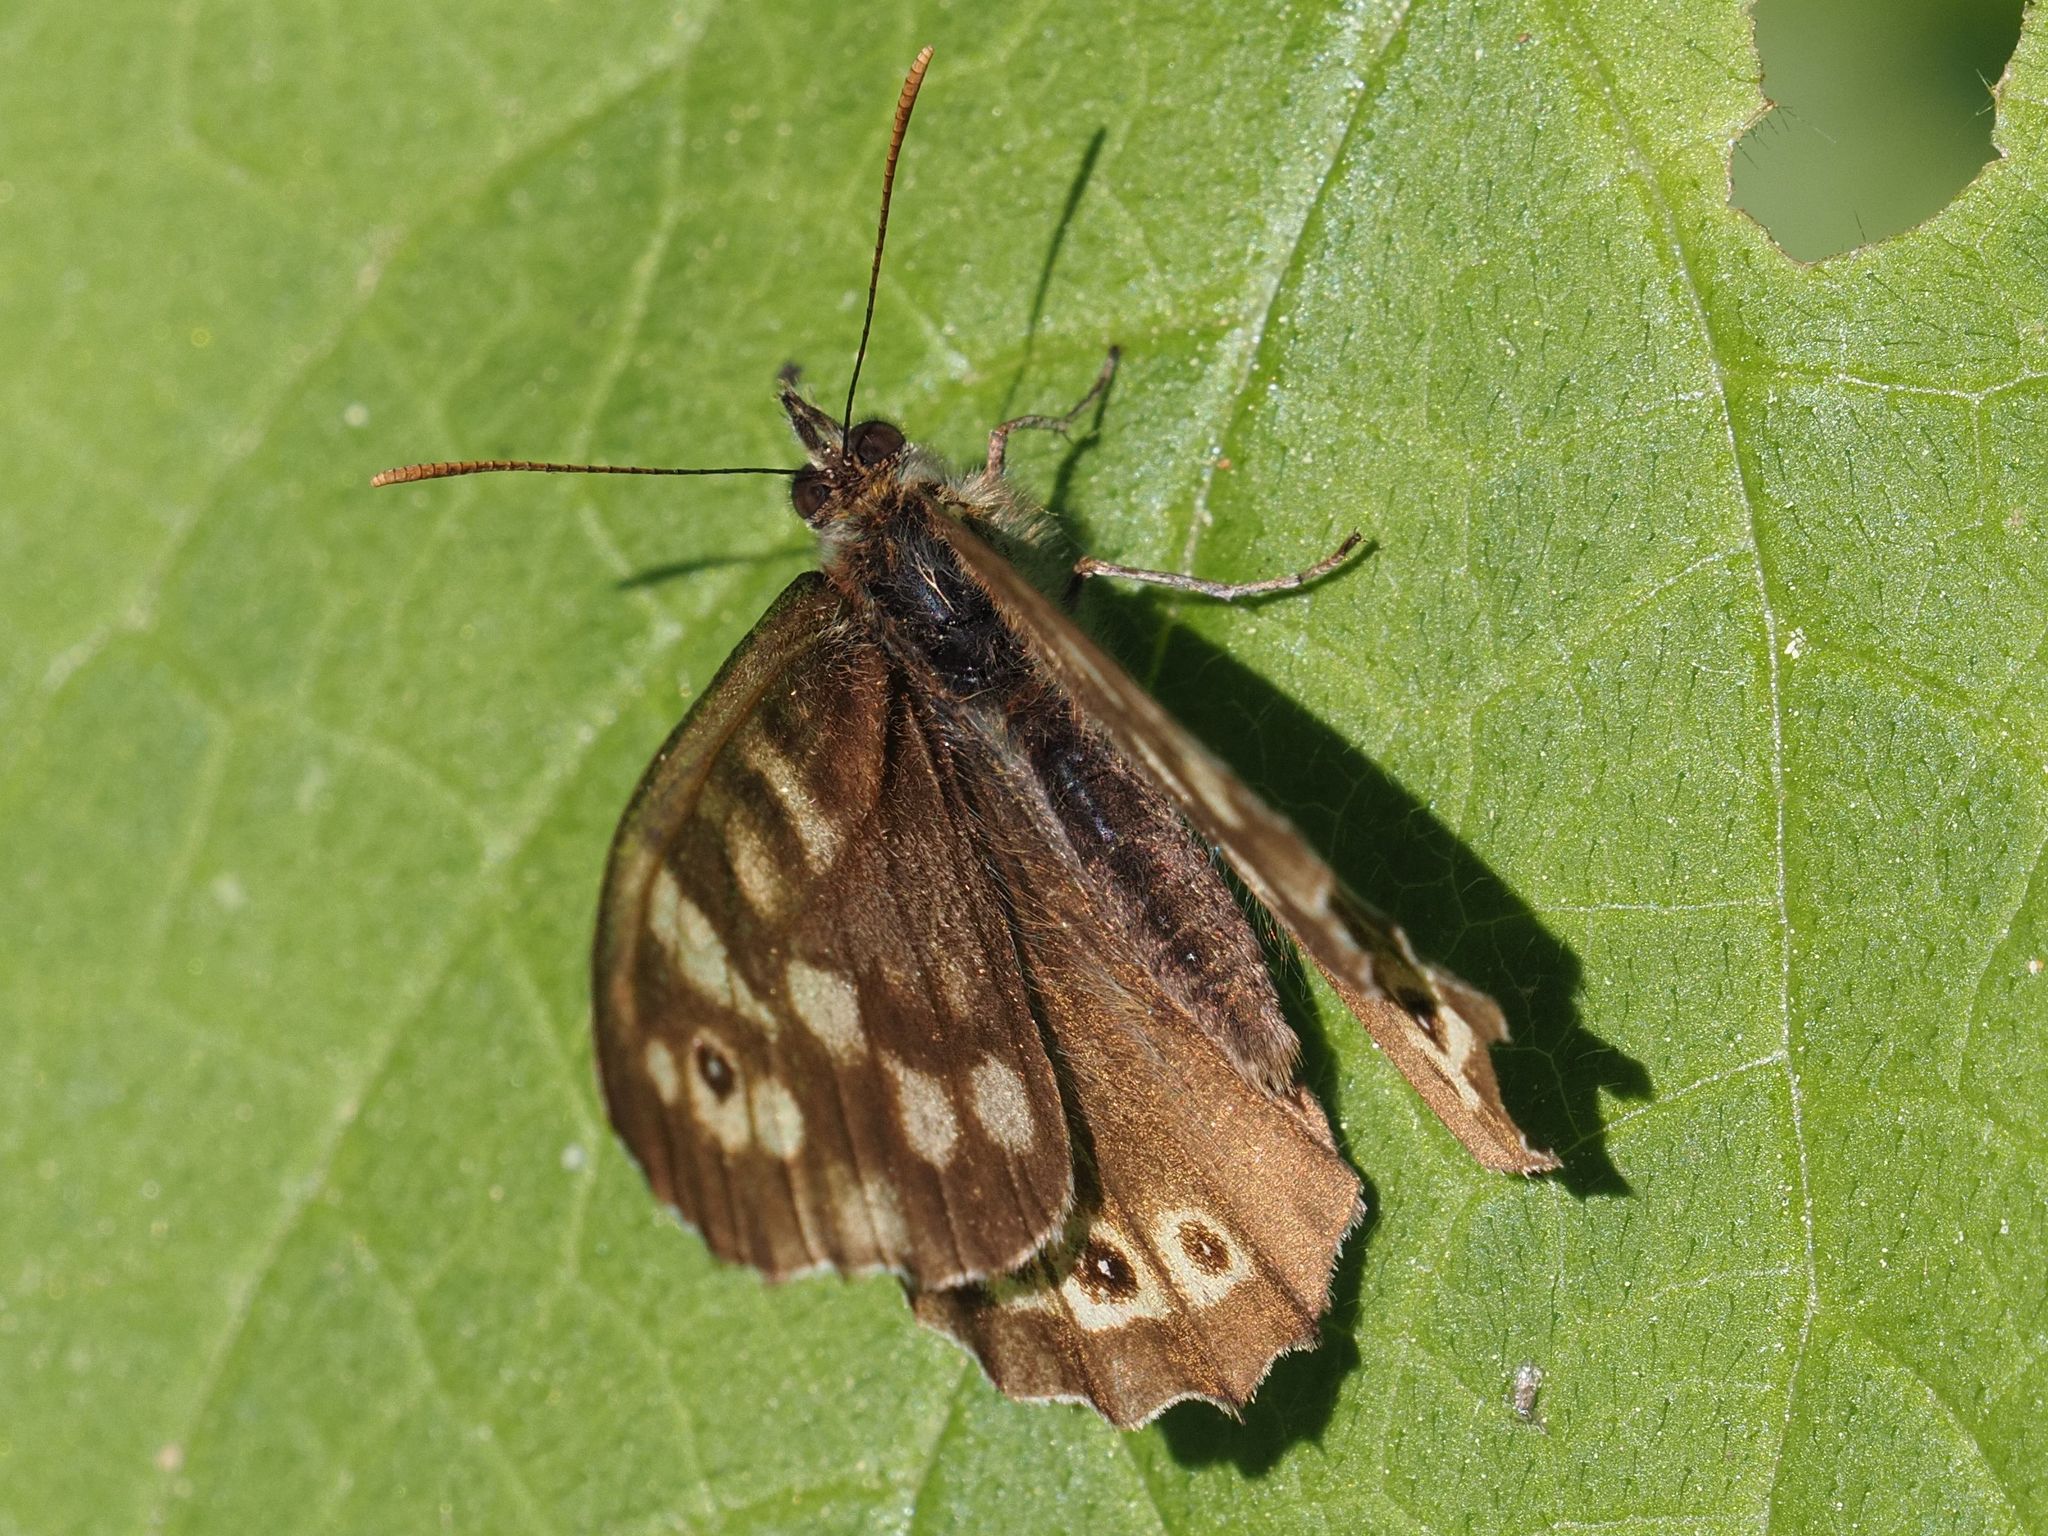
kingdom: Animalia
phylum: Arthropoda
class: Insecta
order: Lepidoptera
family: Nymphalidae
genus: Pararge
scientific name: Pararge aegeria
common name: Speckled wood
